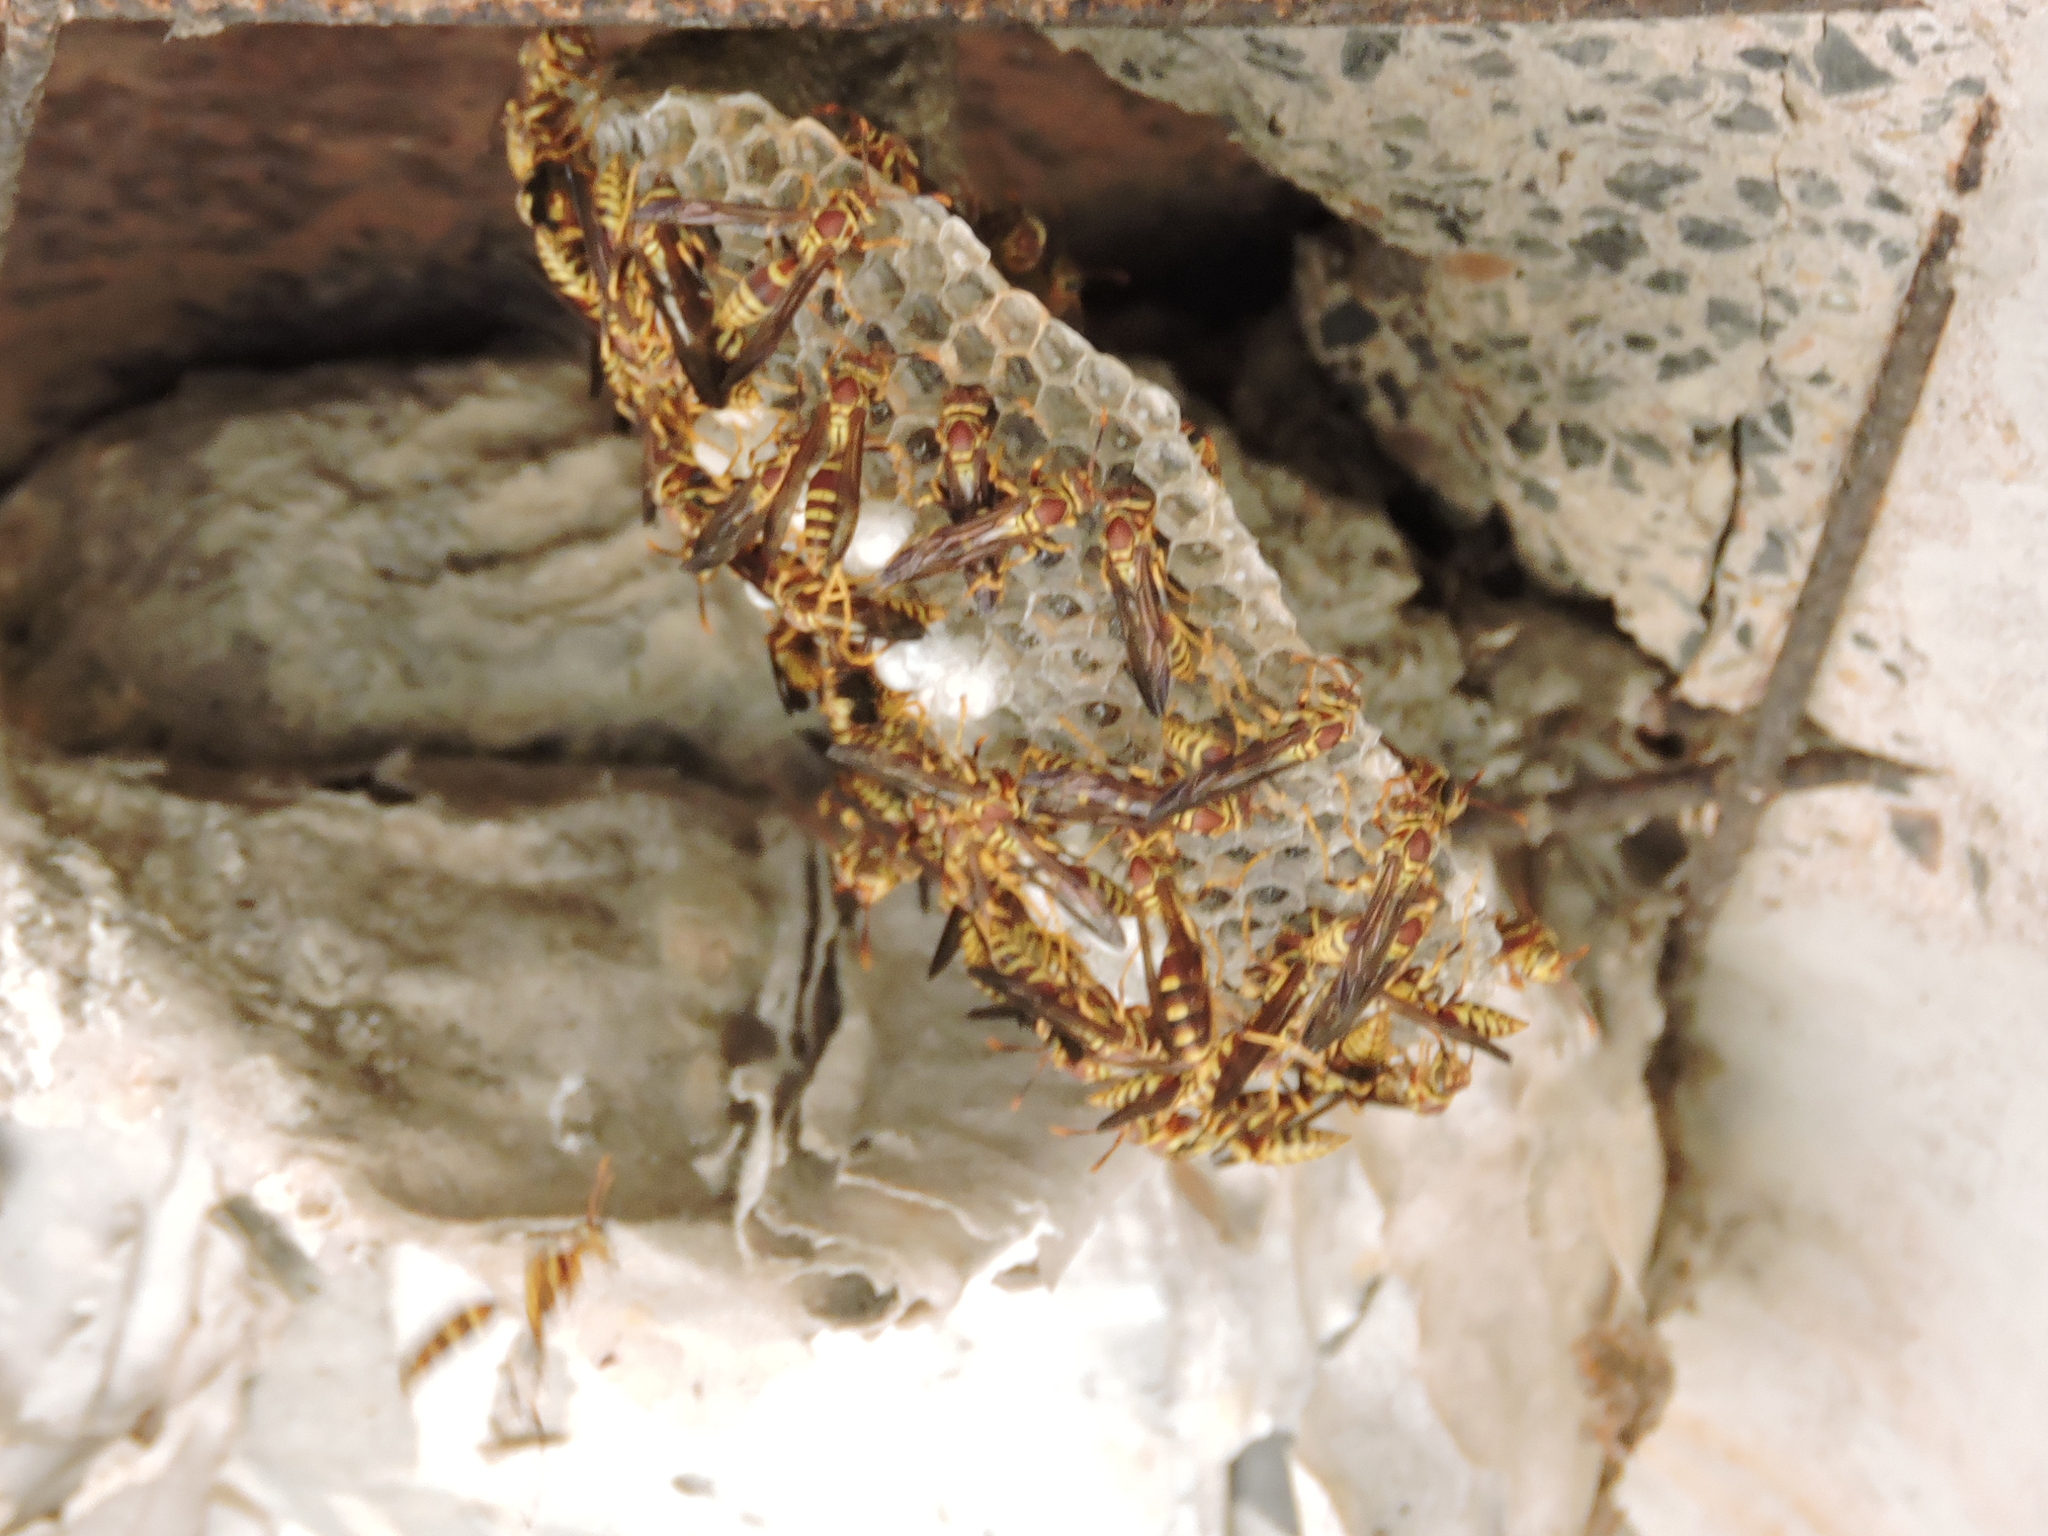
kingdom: Animalia
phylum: Arthropoda
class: Insecta
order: Hymenoptera
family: Eumenidae
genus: Polistes
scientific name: Polistes exclamans
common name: Paper wasp
